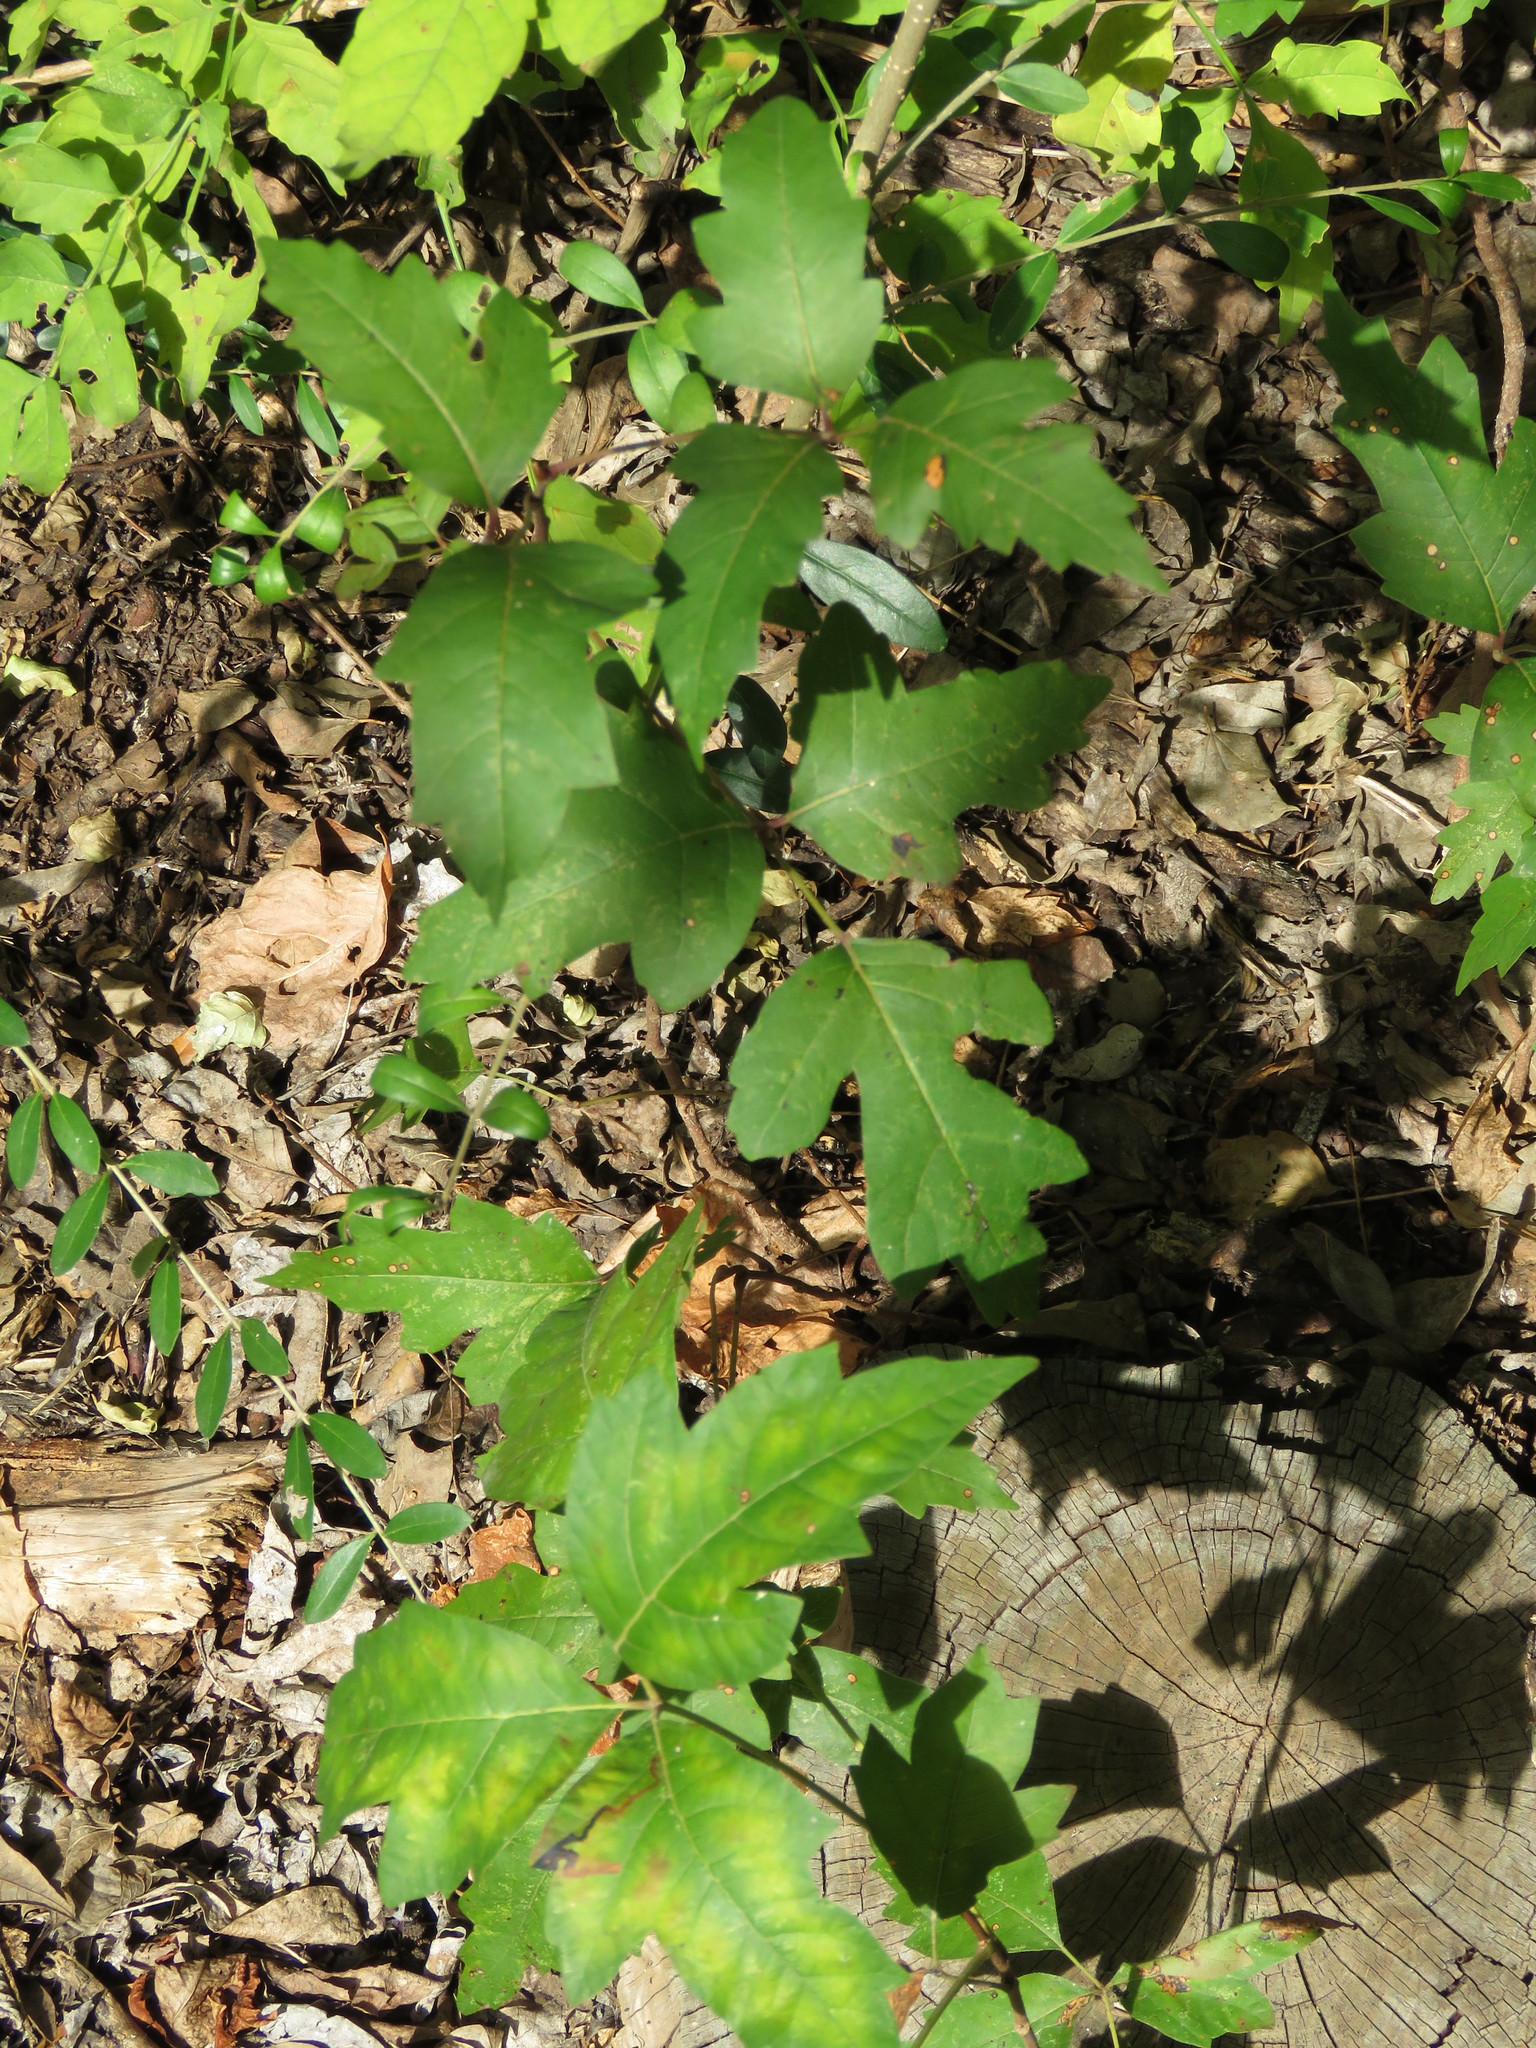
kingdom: Plantae
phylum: Tracheophyta
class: Magnoliopsida
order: Sapindales
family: Anacardiaceae
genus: Toxicodendron
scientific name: Toxicodendron radicans
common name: Poison ivy
